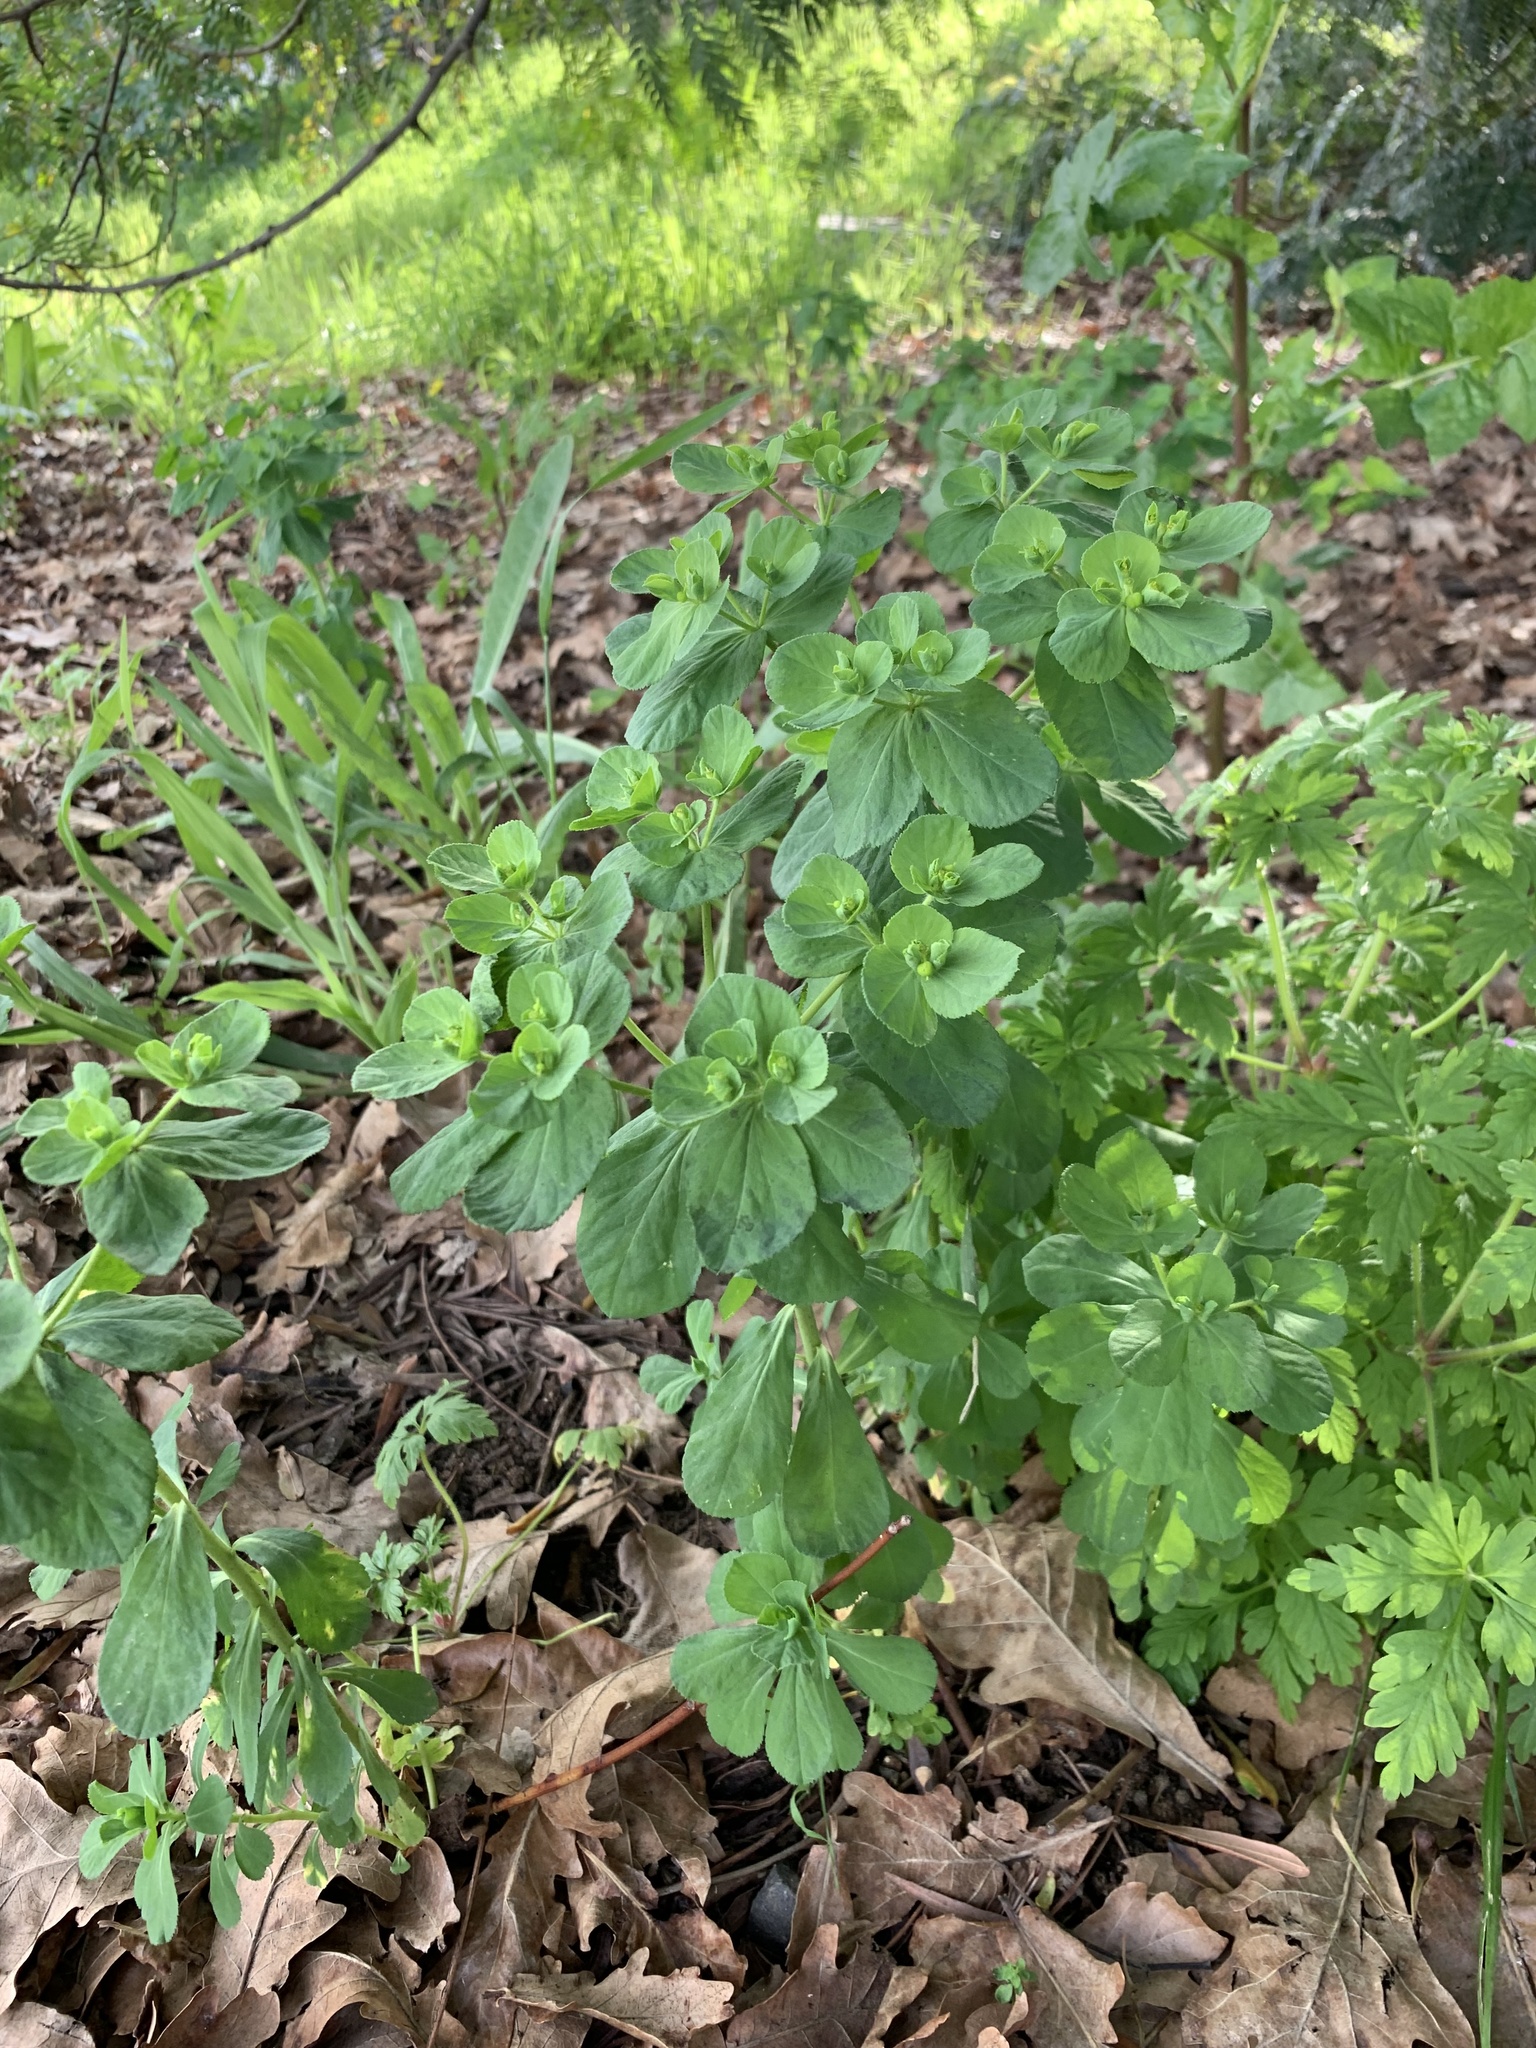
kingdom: Plantae
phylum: Tracheophyta
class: Magnoliopsida
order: Malpighiales
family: Euphorbiaceae
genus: Euphorbia
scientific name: Euphorbia helioscopia
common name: Sun spurge
